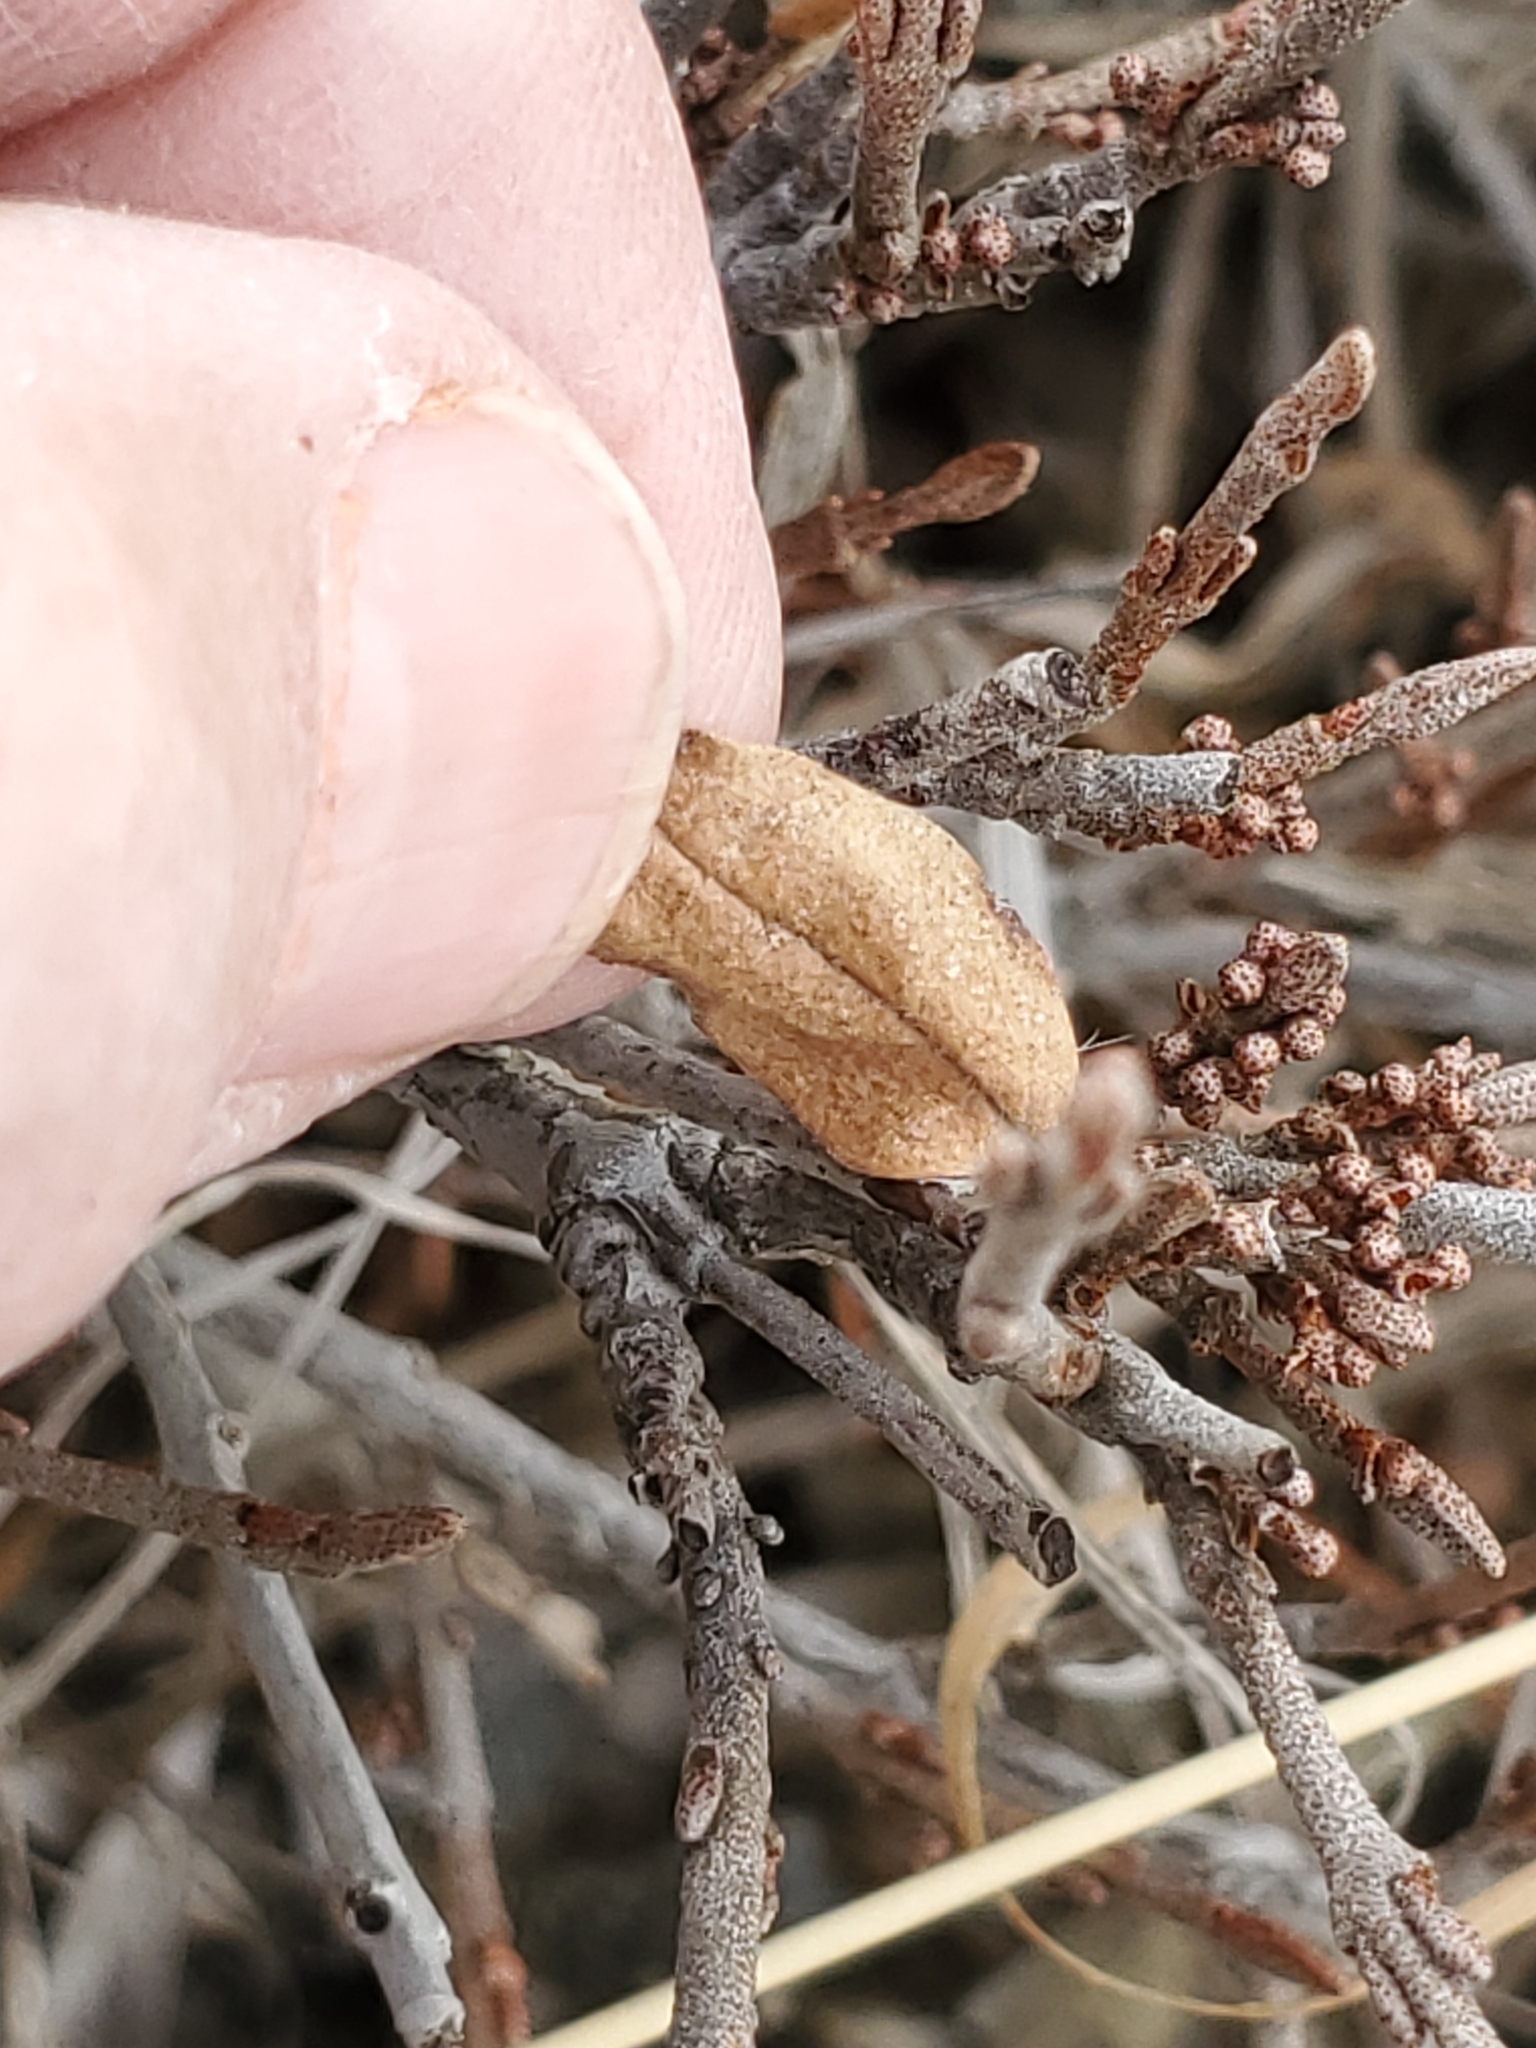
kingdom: Plantae
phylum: Tracheophyta
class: Magnoliopsida
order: Rosales
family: Elaeagnaceae
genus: Shepherdia
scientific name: Shepherdia canadensis
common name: Soapberry
